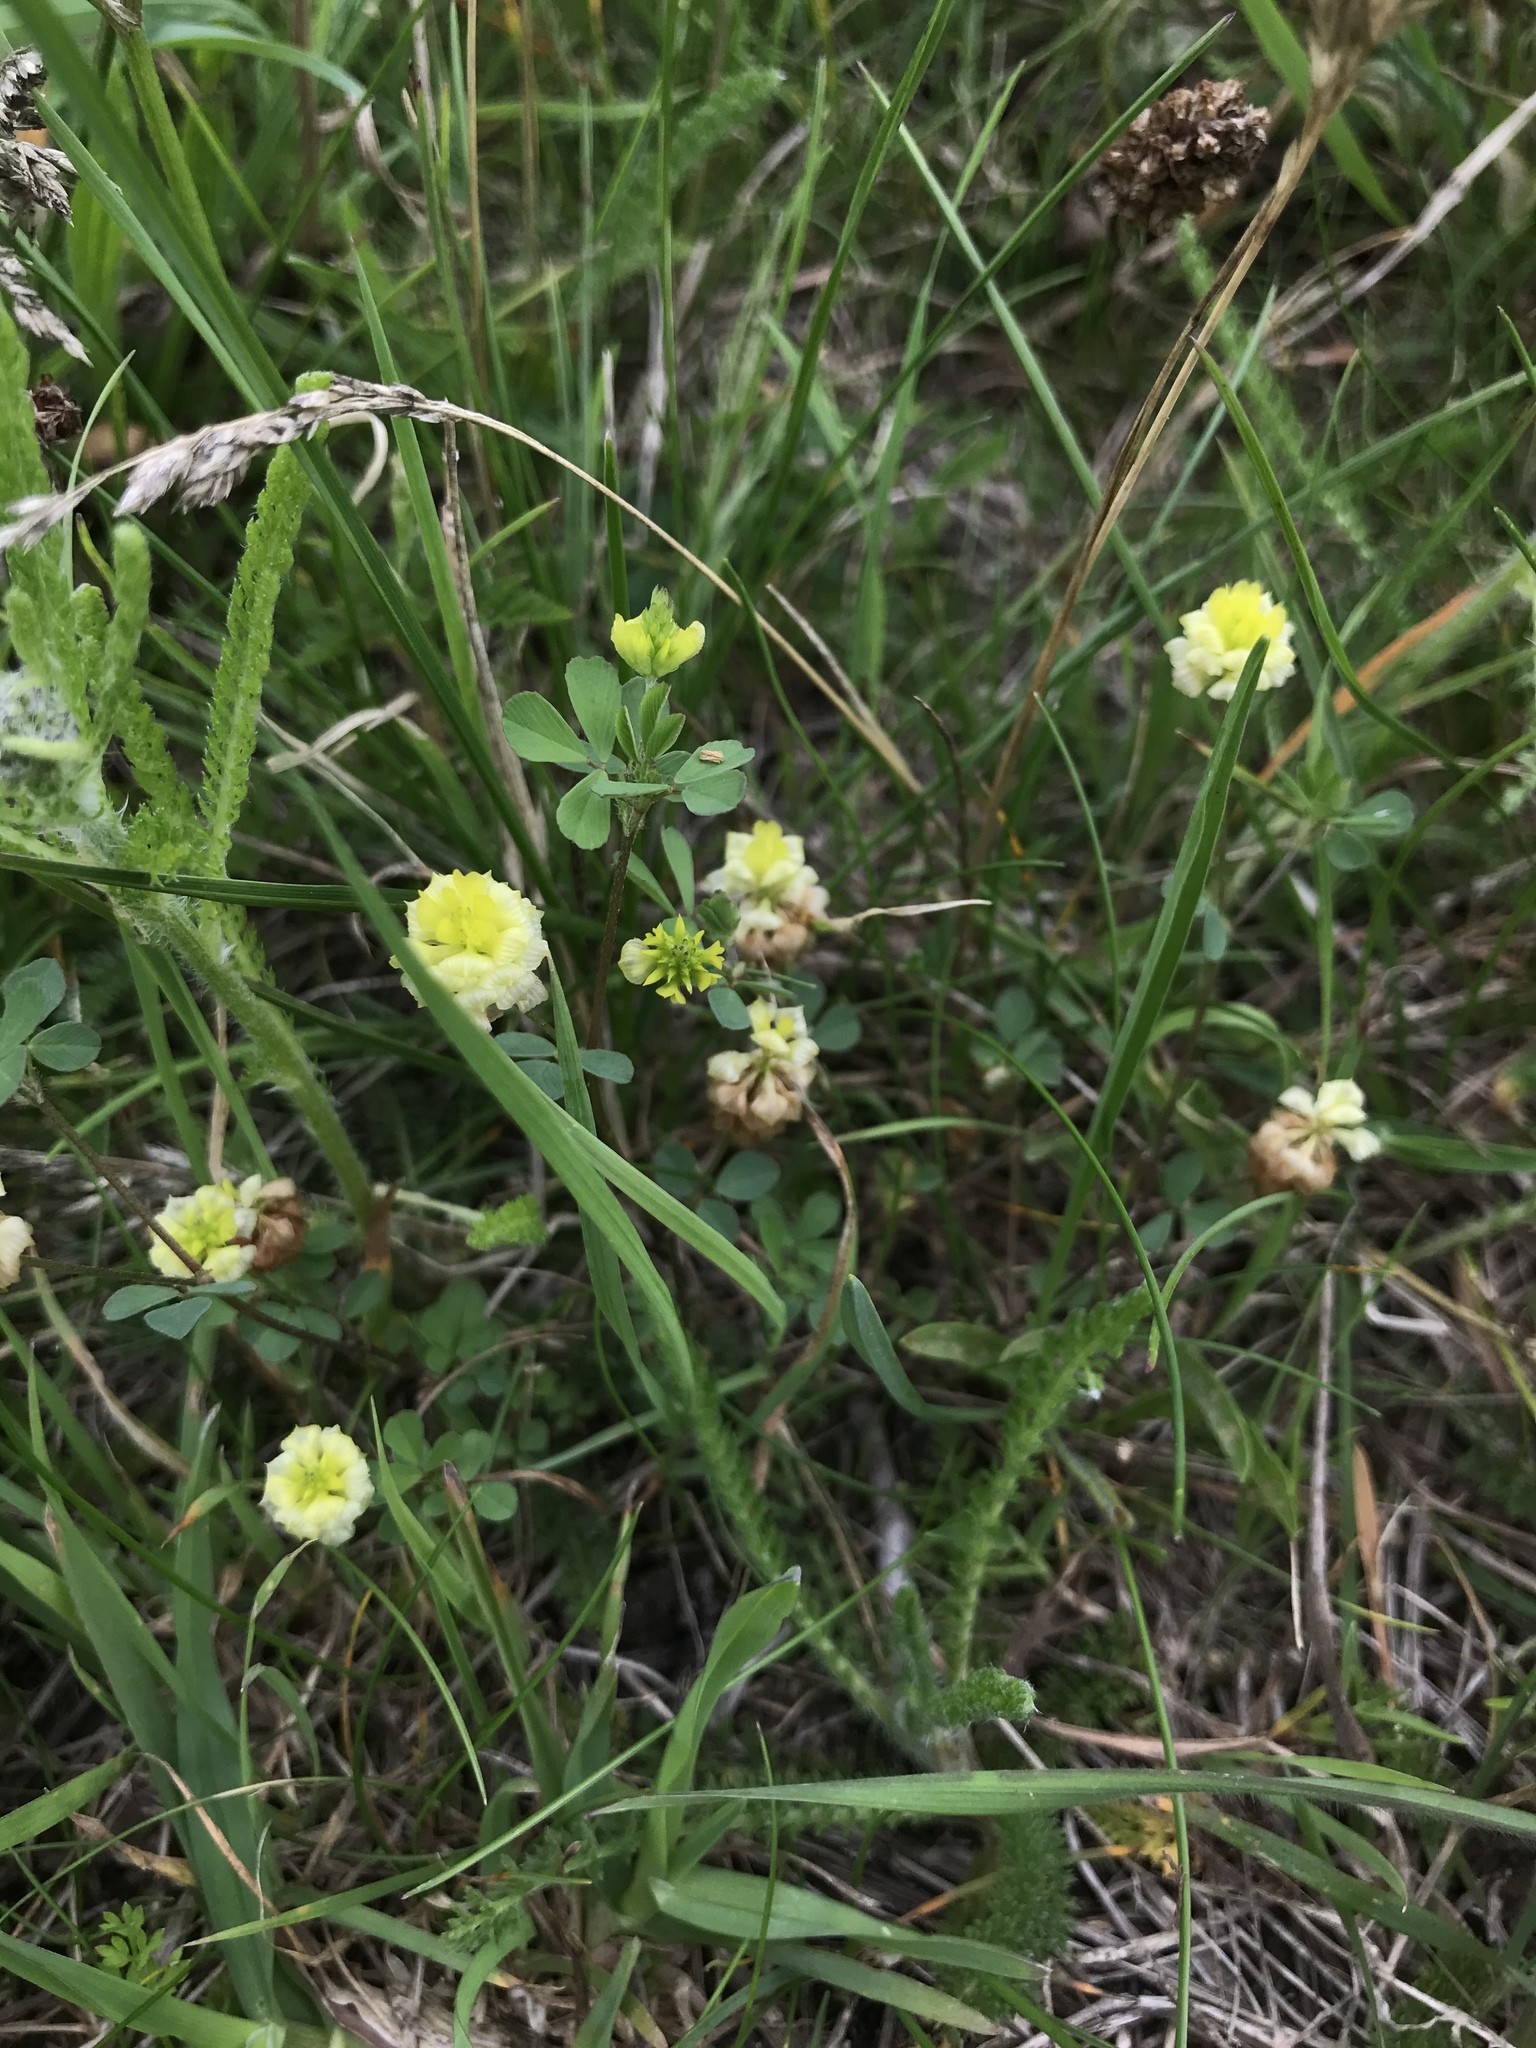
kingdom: Plantae
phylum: Tracheophyta
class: Magnoliopsida
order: Fabales
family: Fabaceae
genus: Trifolium
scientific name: Trifolium campestre
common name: Field clover
